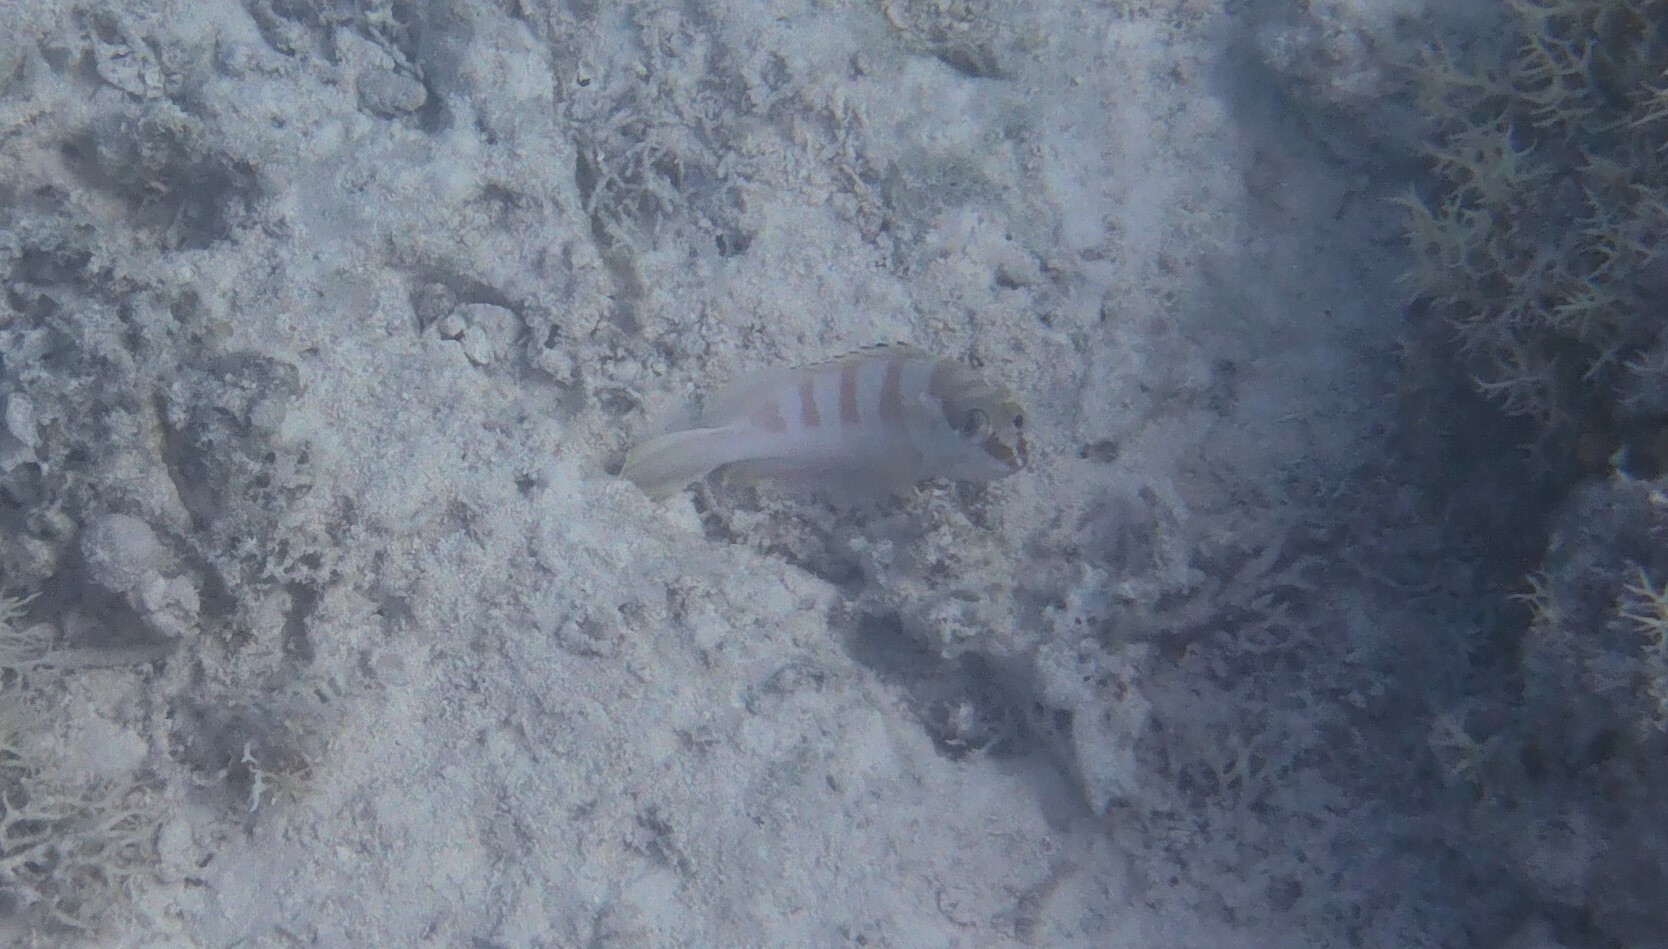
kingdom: Animalia
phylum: Chordata
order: Perciformes
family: Serranidae
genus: Epinephelus
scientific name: Epinephelus fasciatus
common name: Blacktip grouper
